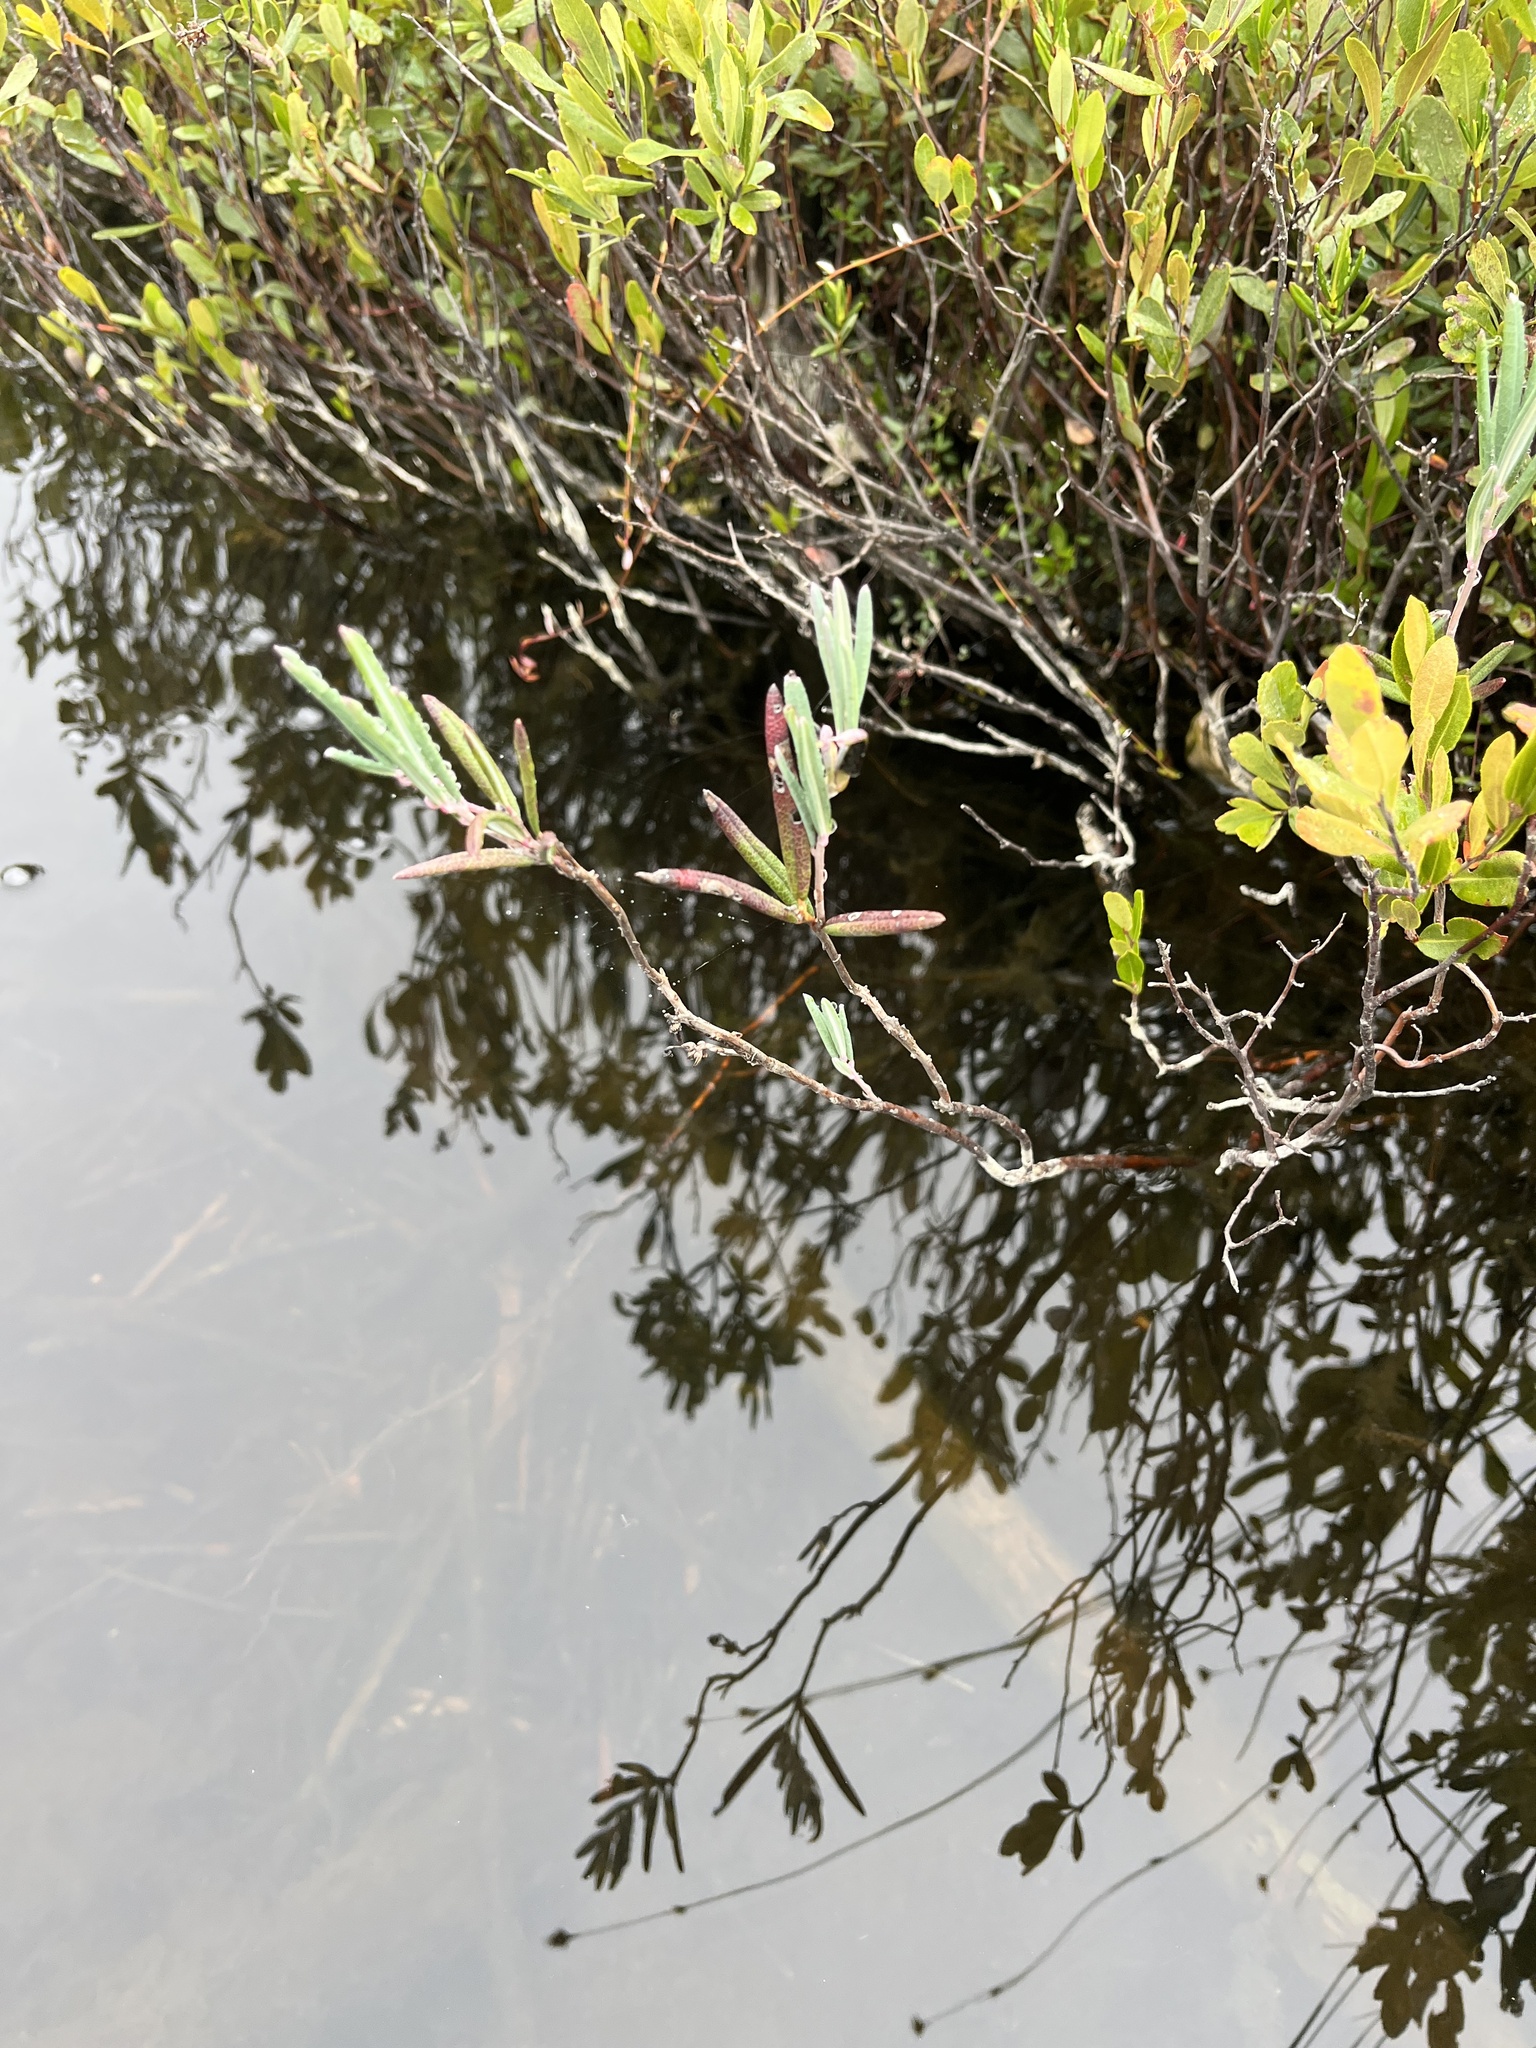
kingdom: Plantae
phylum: Tracheophyta
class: Magnoliopsida
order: Ericales
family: Ericaceae
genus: Andromeda
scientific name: Andromeda polifolia
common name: Bog-rosemary
